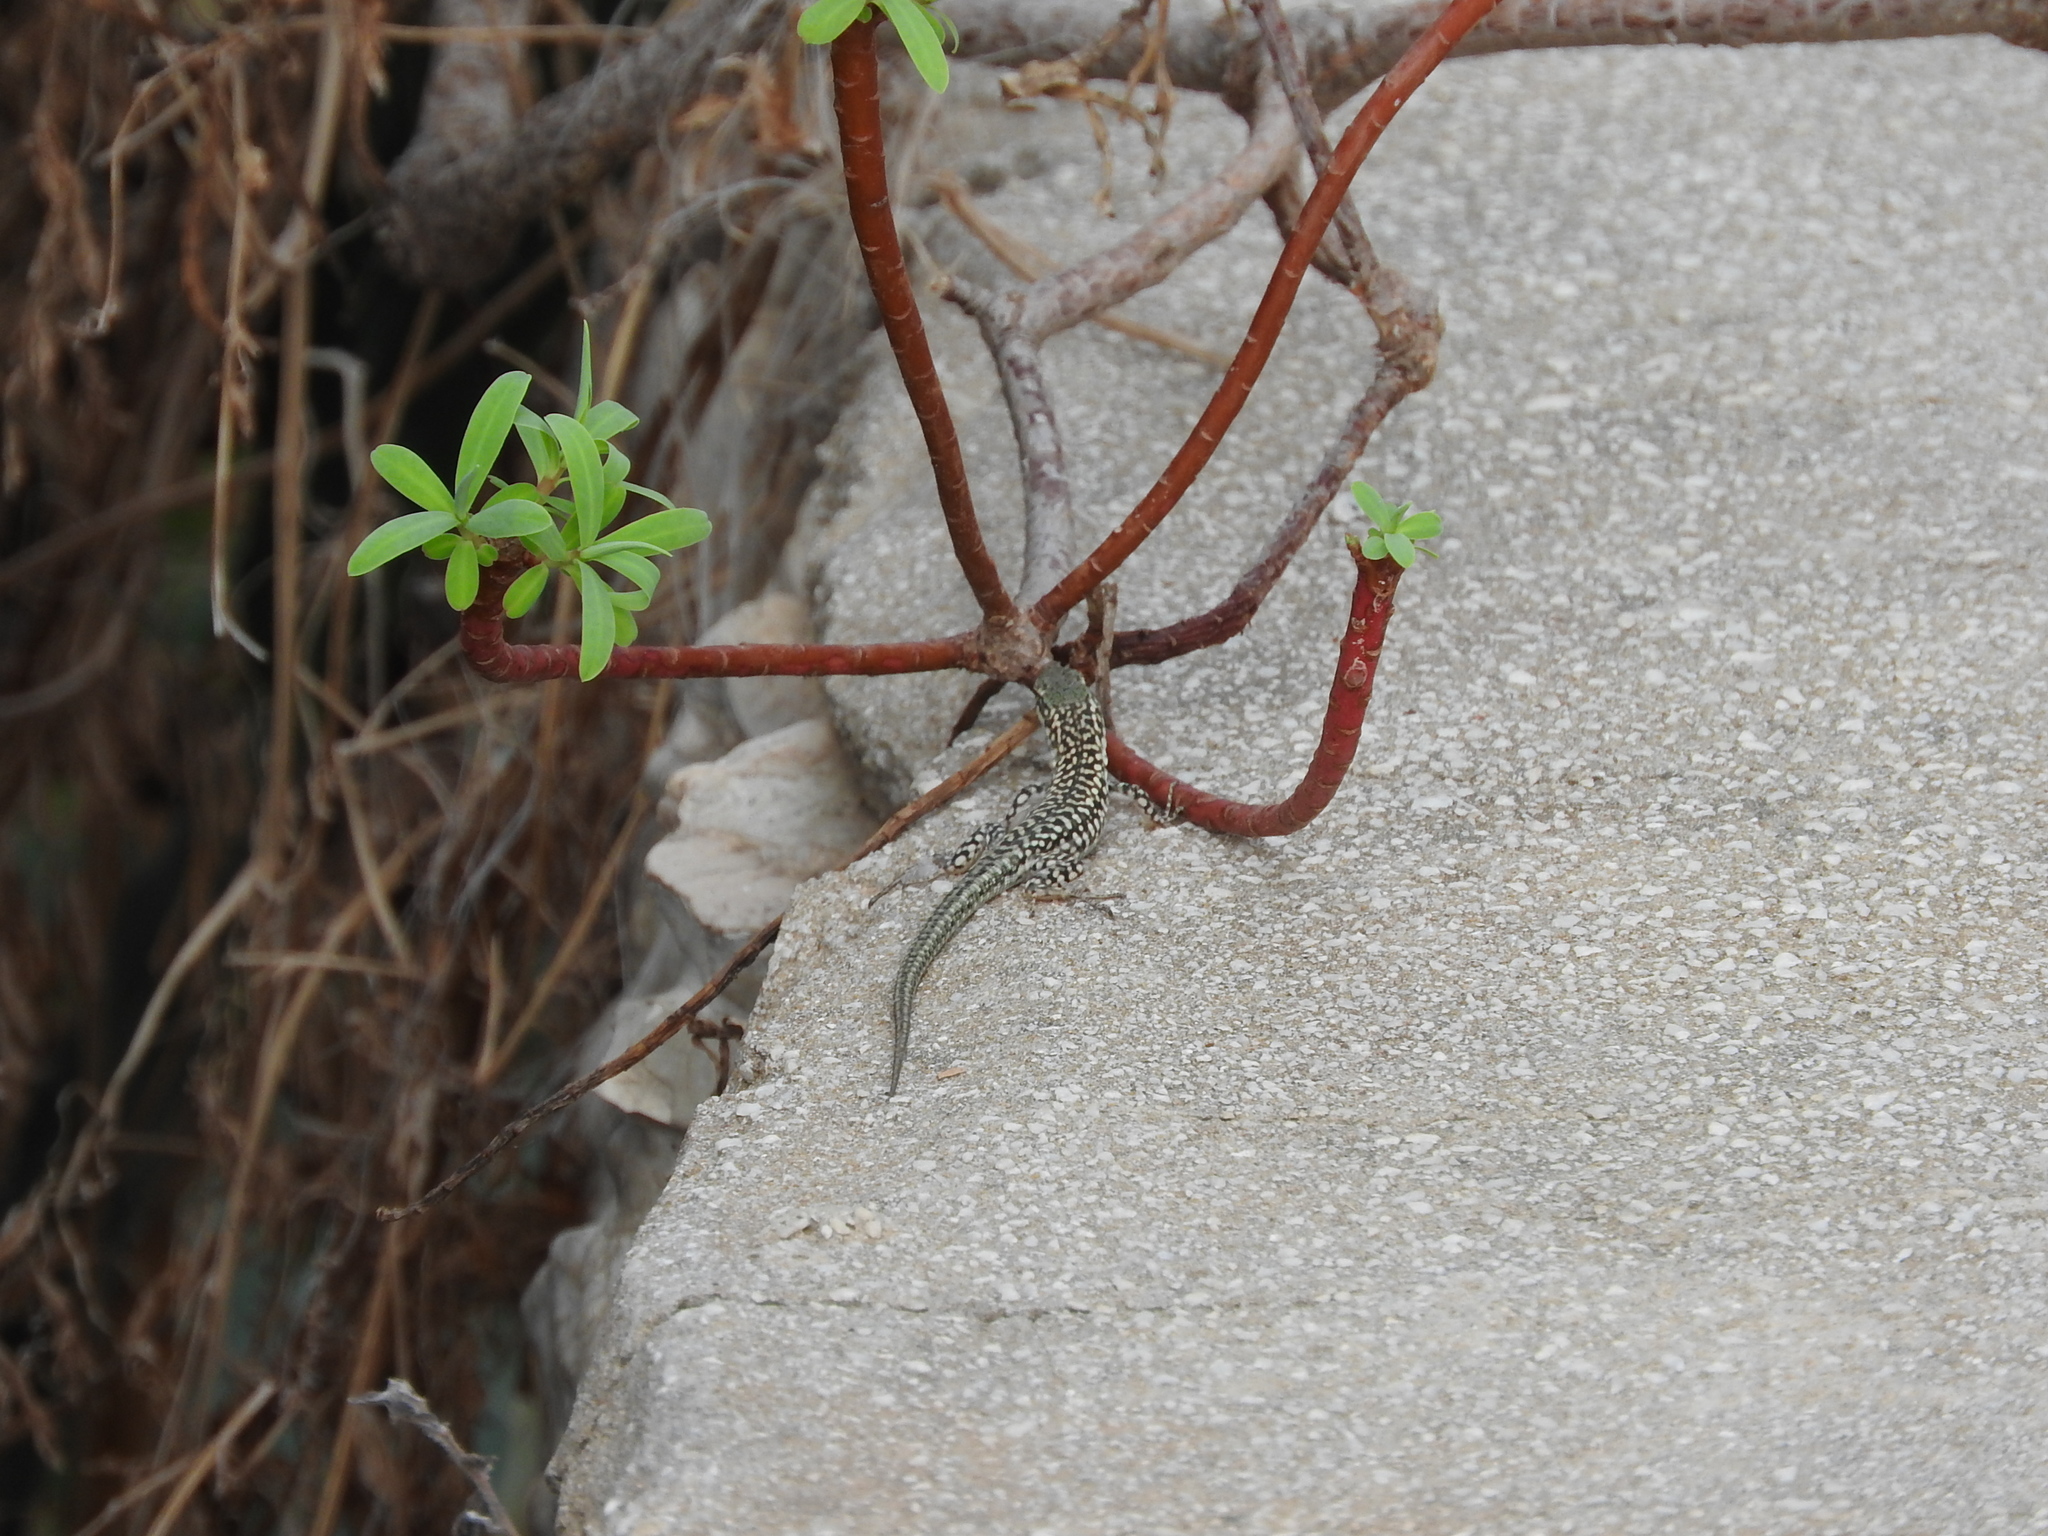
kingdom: Animalia
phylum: Chordata
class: Squamata
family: Lacertidae
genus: Podarcis
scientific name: Podarcis siculus
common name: Italian wall lizard
